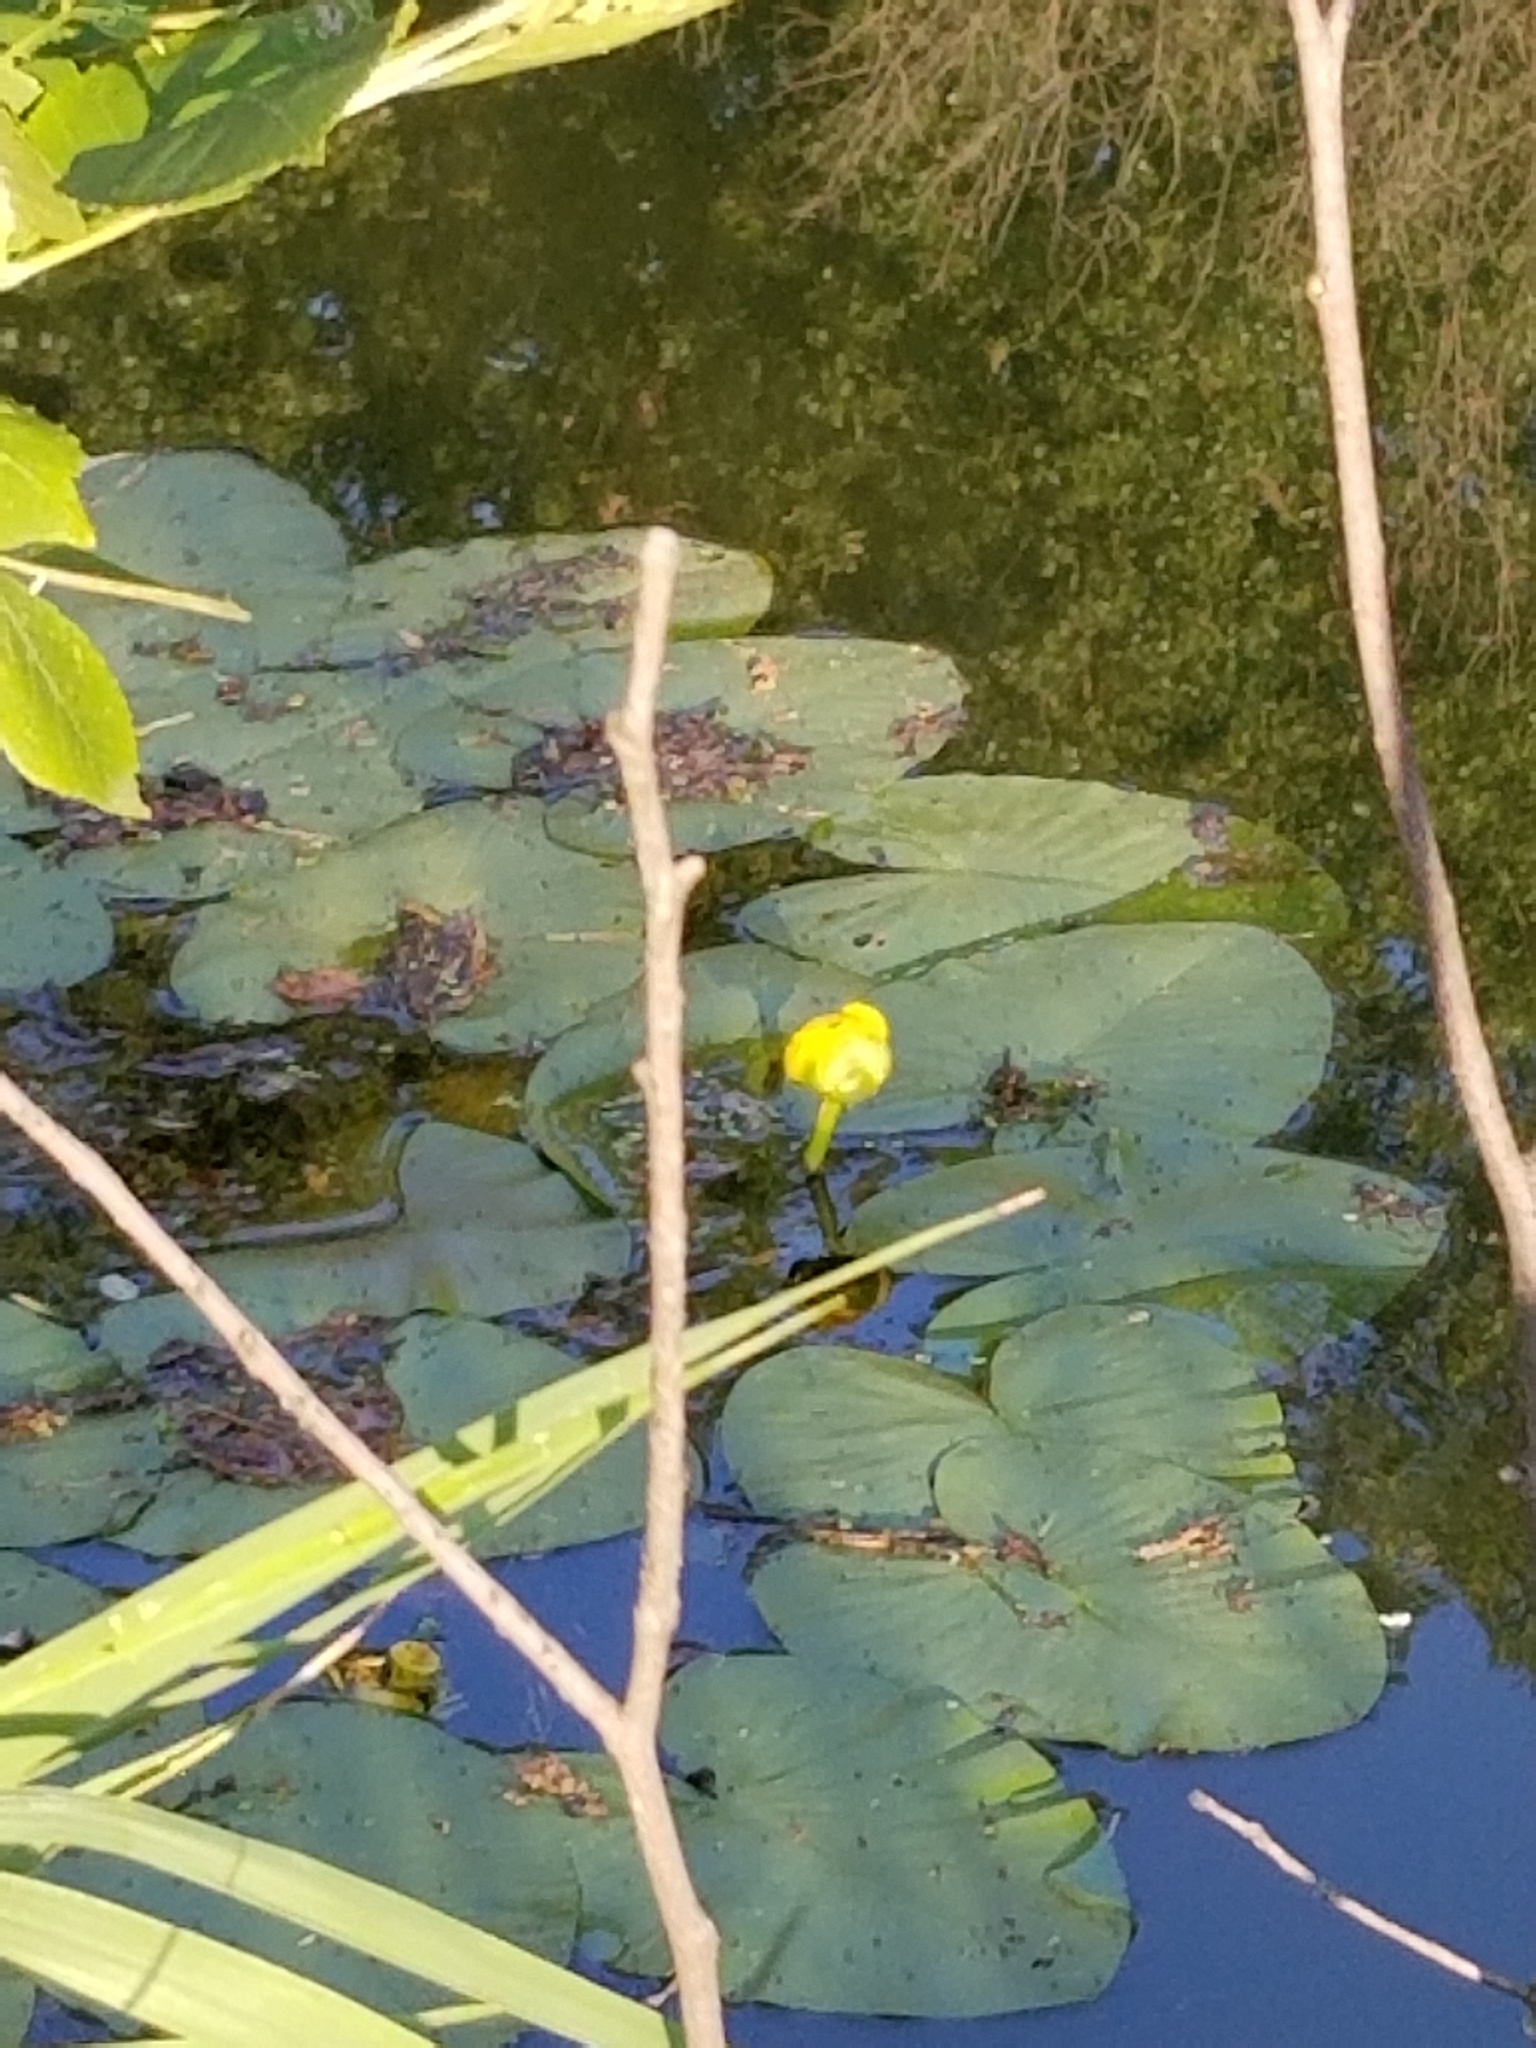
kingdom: Plantae
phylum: Tracheophyta
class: Magnoliopsida
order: Nymphaeales
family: Nymphaeaceae
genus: Nuphar
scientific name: Nuphar variegata
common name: Beaver-root
